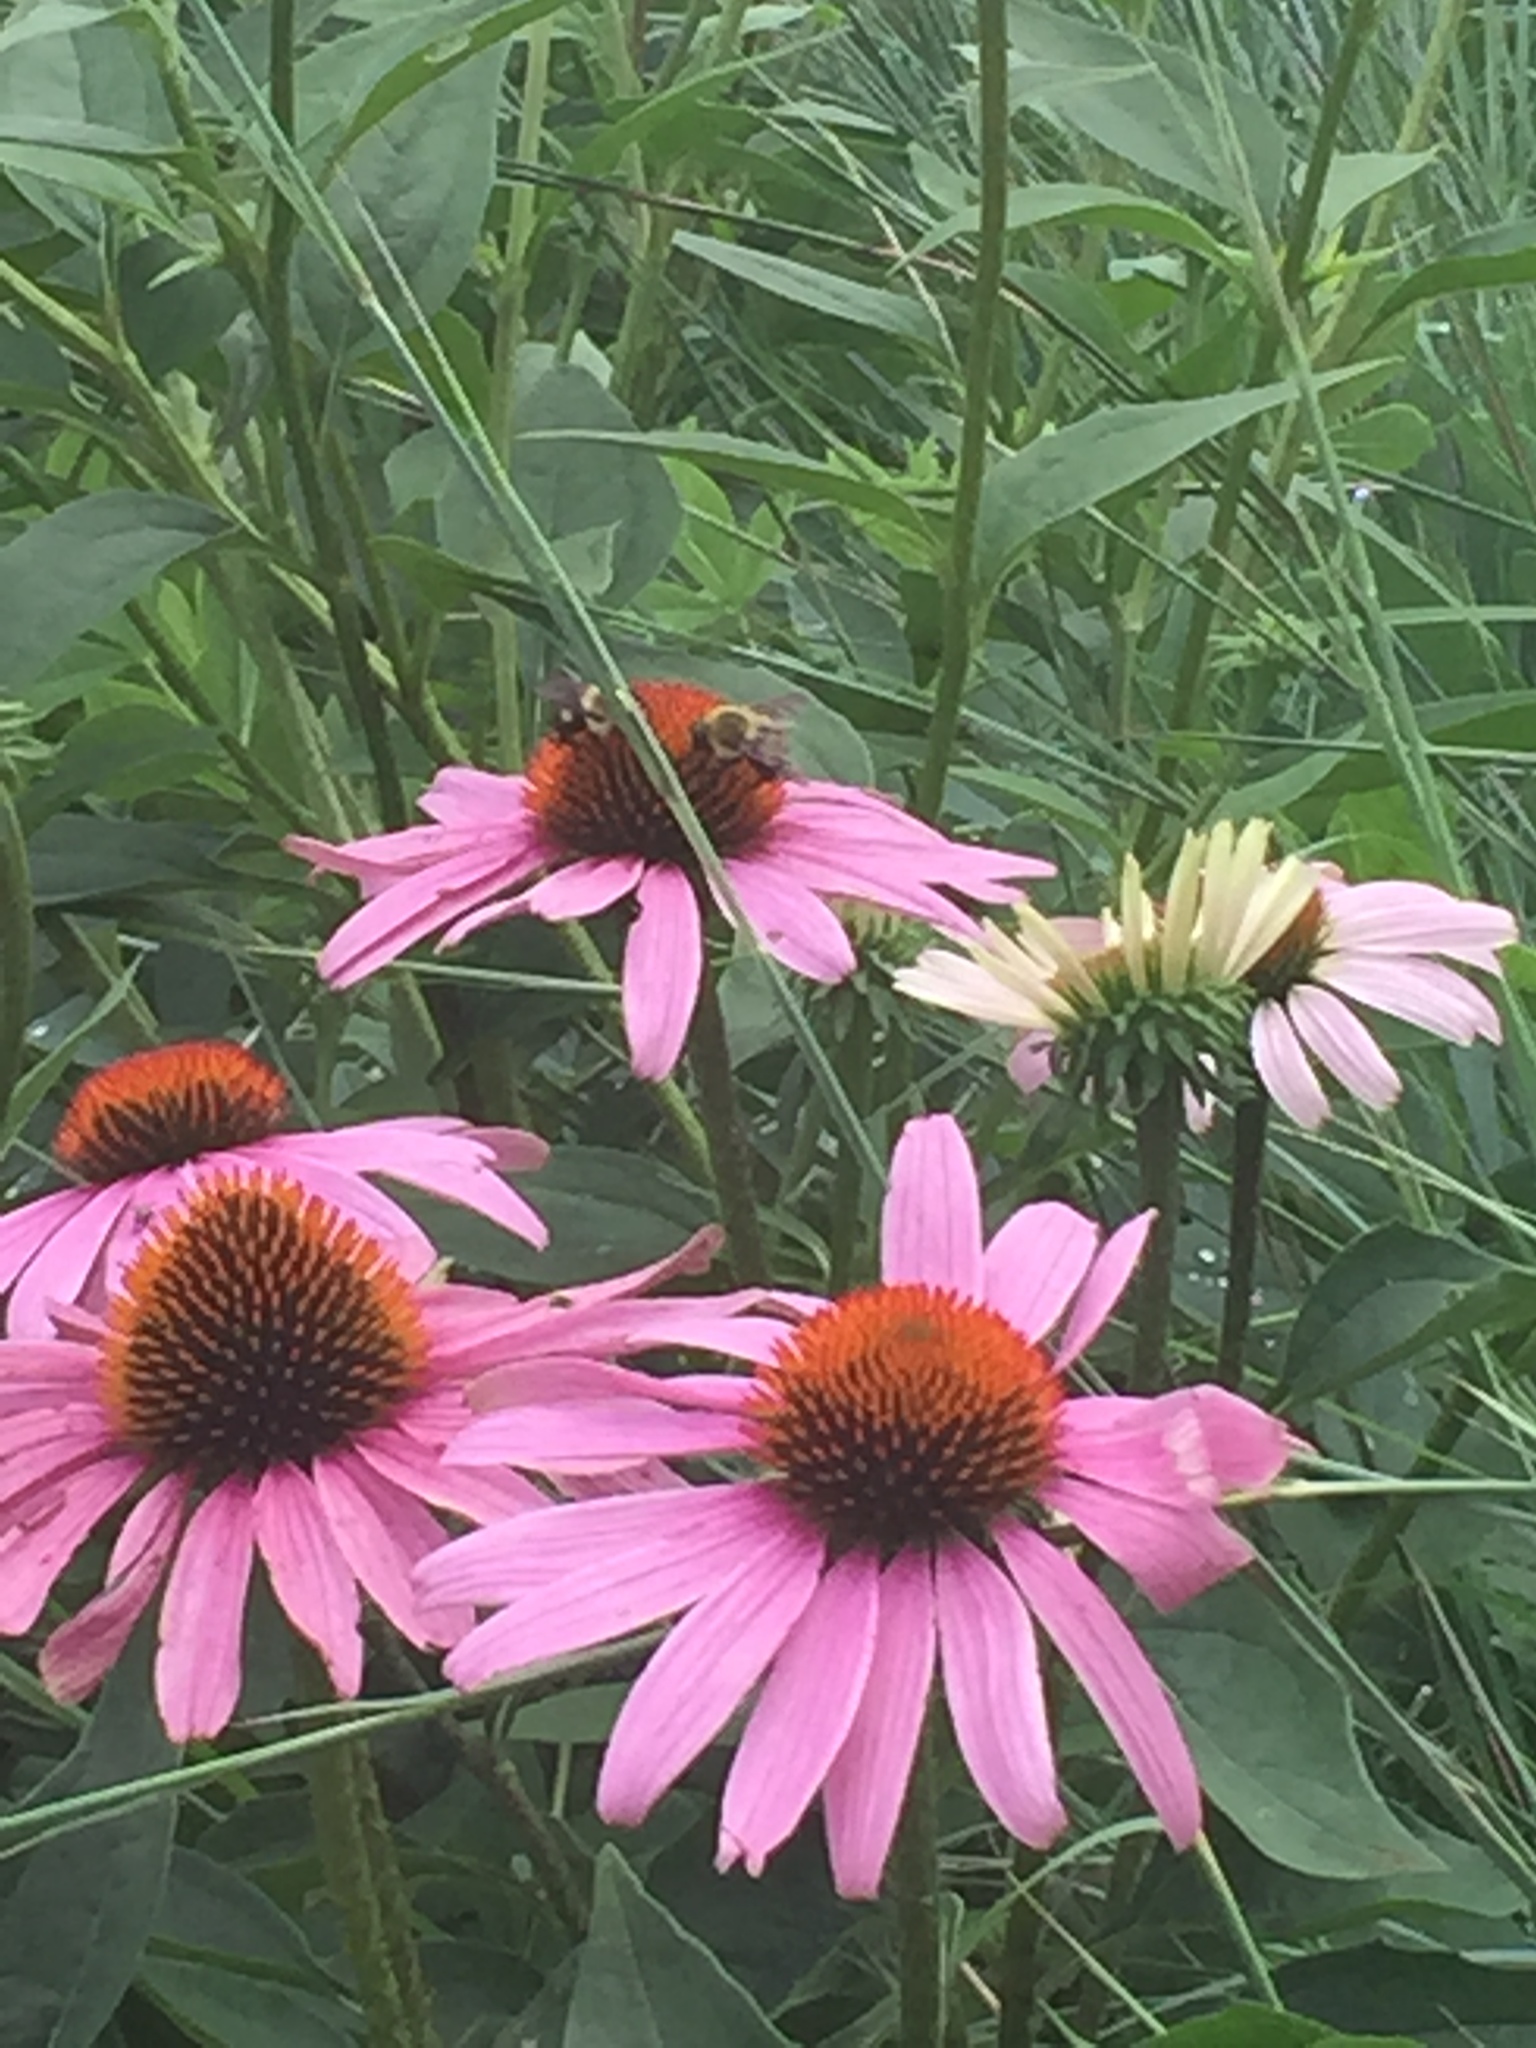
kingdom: Animalia
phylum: Arthropoda
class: Insecta
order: Hymenoptera
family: Apidae
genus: Bombus
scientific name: Bombus griseocollis
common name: Brown-belted bumble bee
